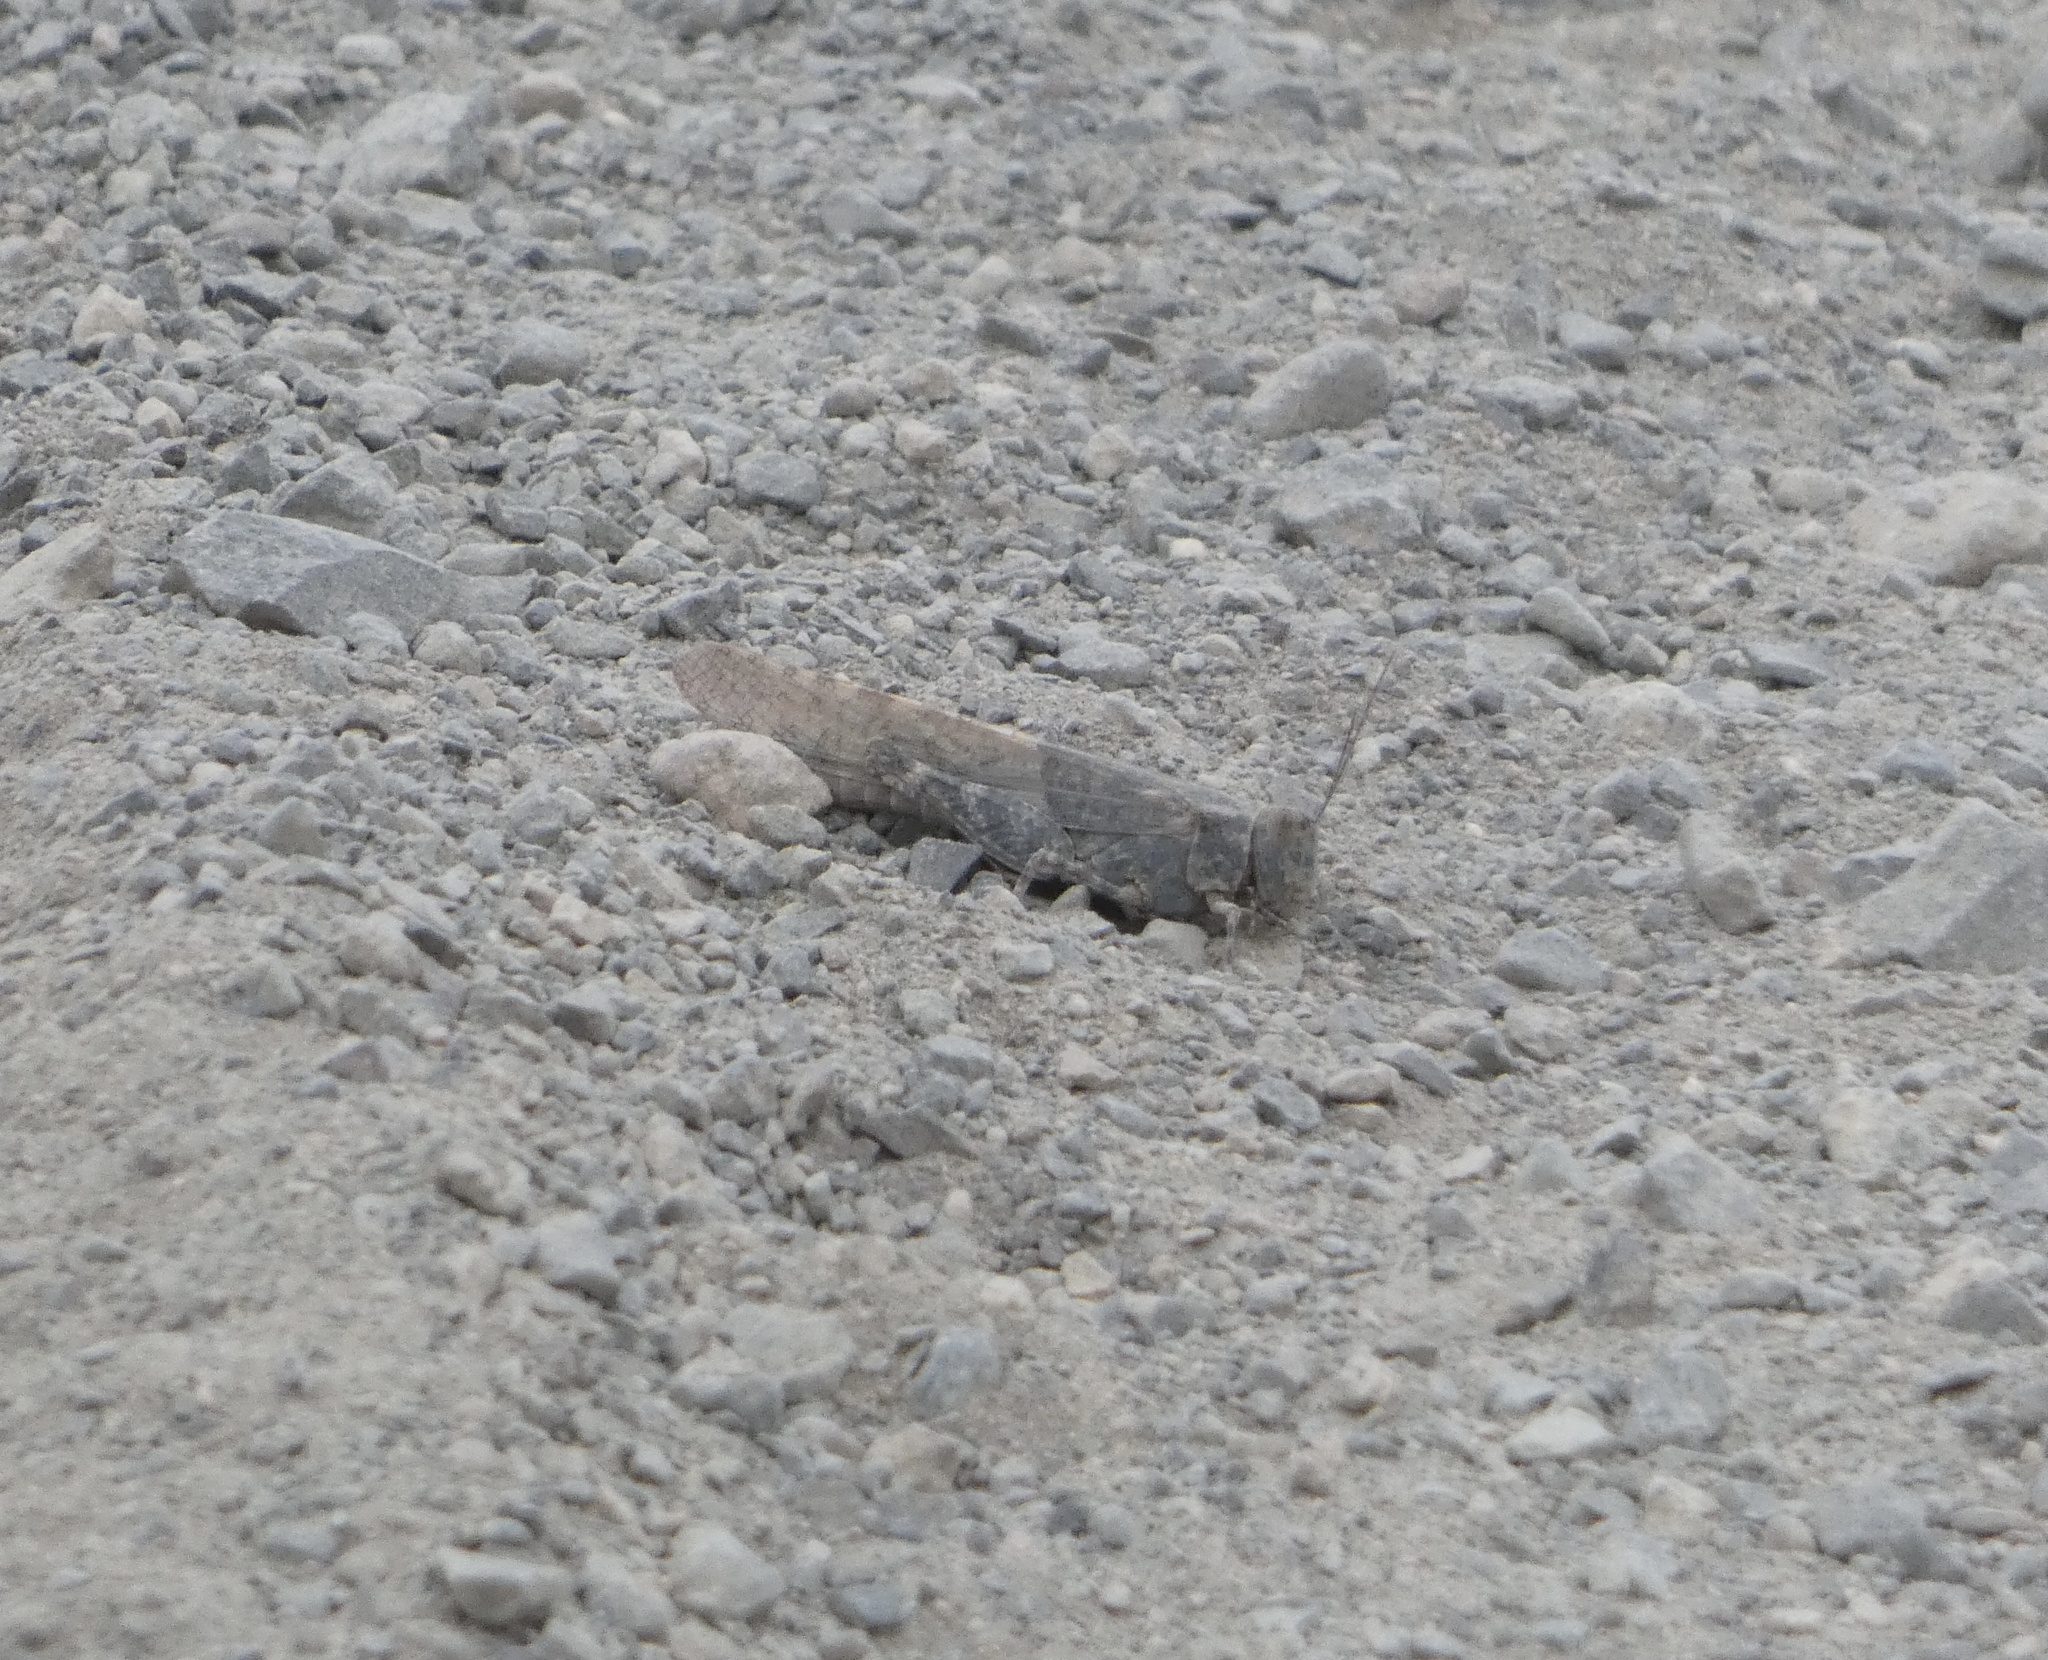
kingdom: Animalia
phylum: Arthropoda
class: Insecta
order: Orthoptera
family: Acrididae
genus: Sphingonotus
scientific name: Sphingonotus rubescens
